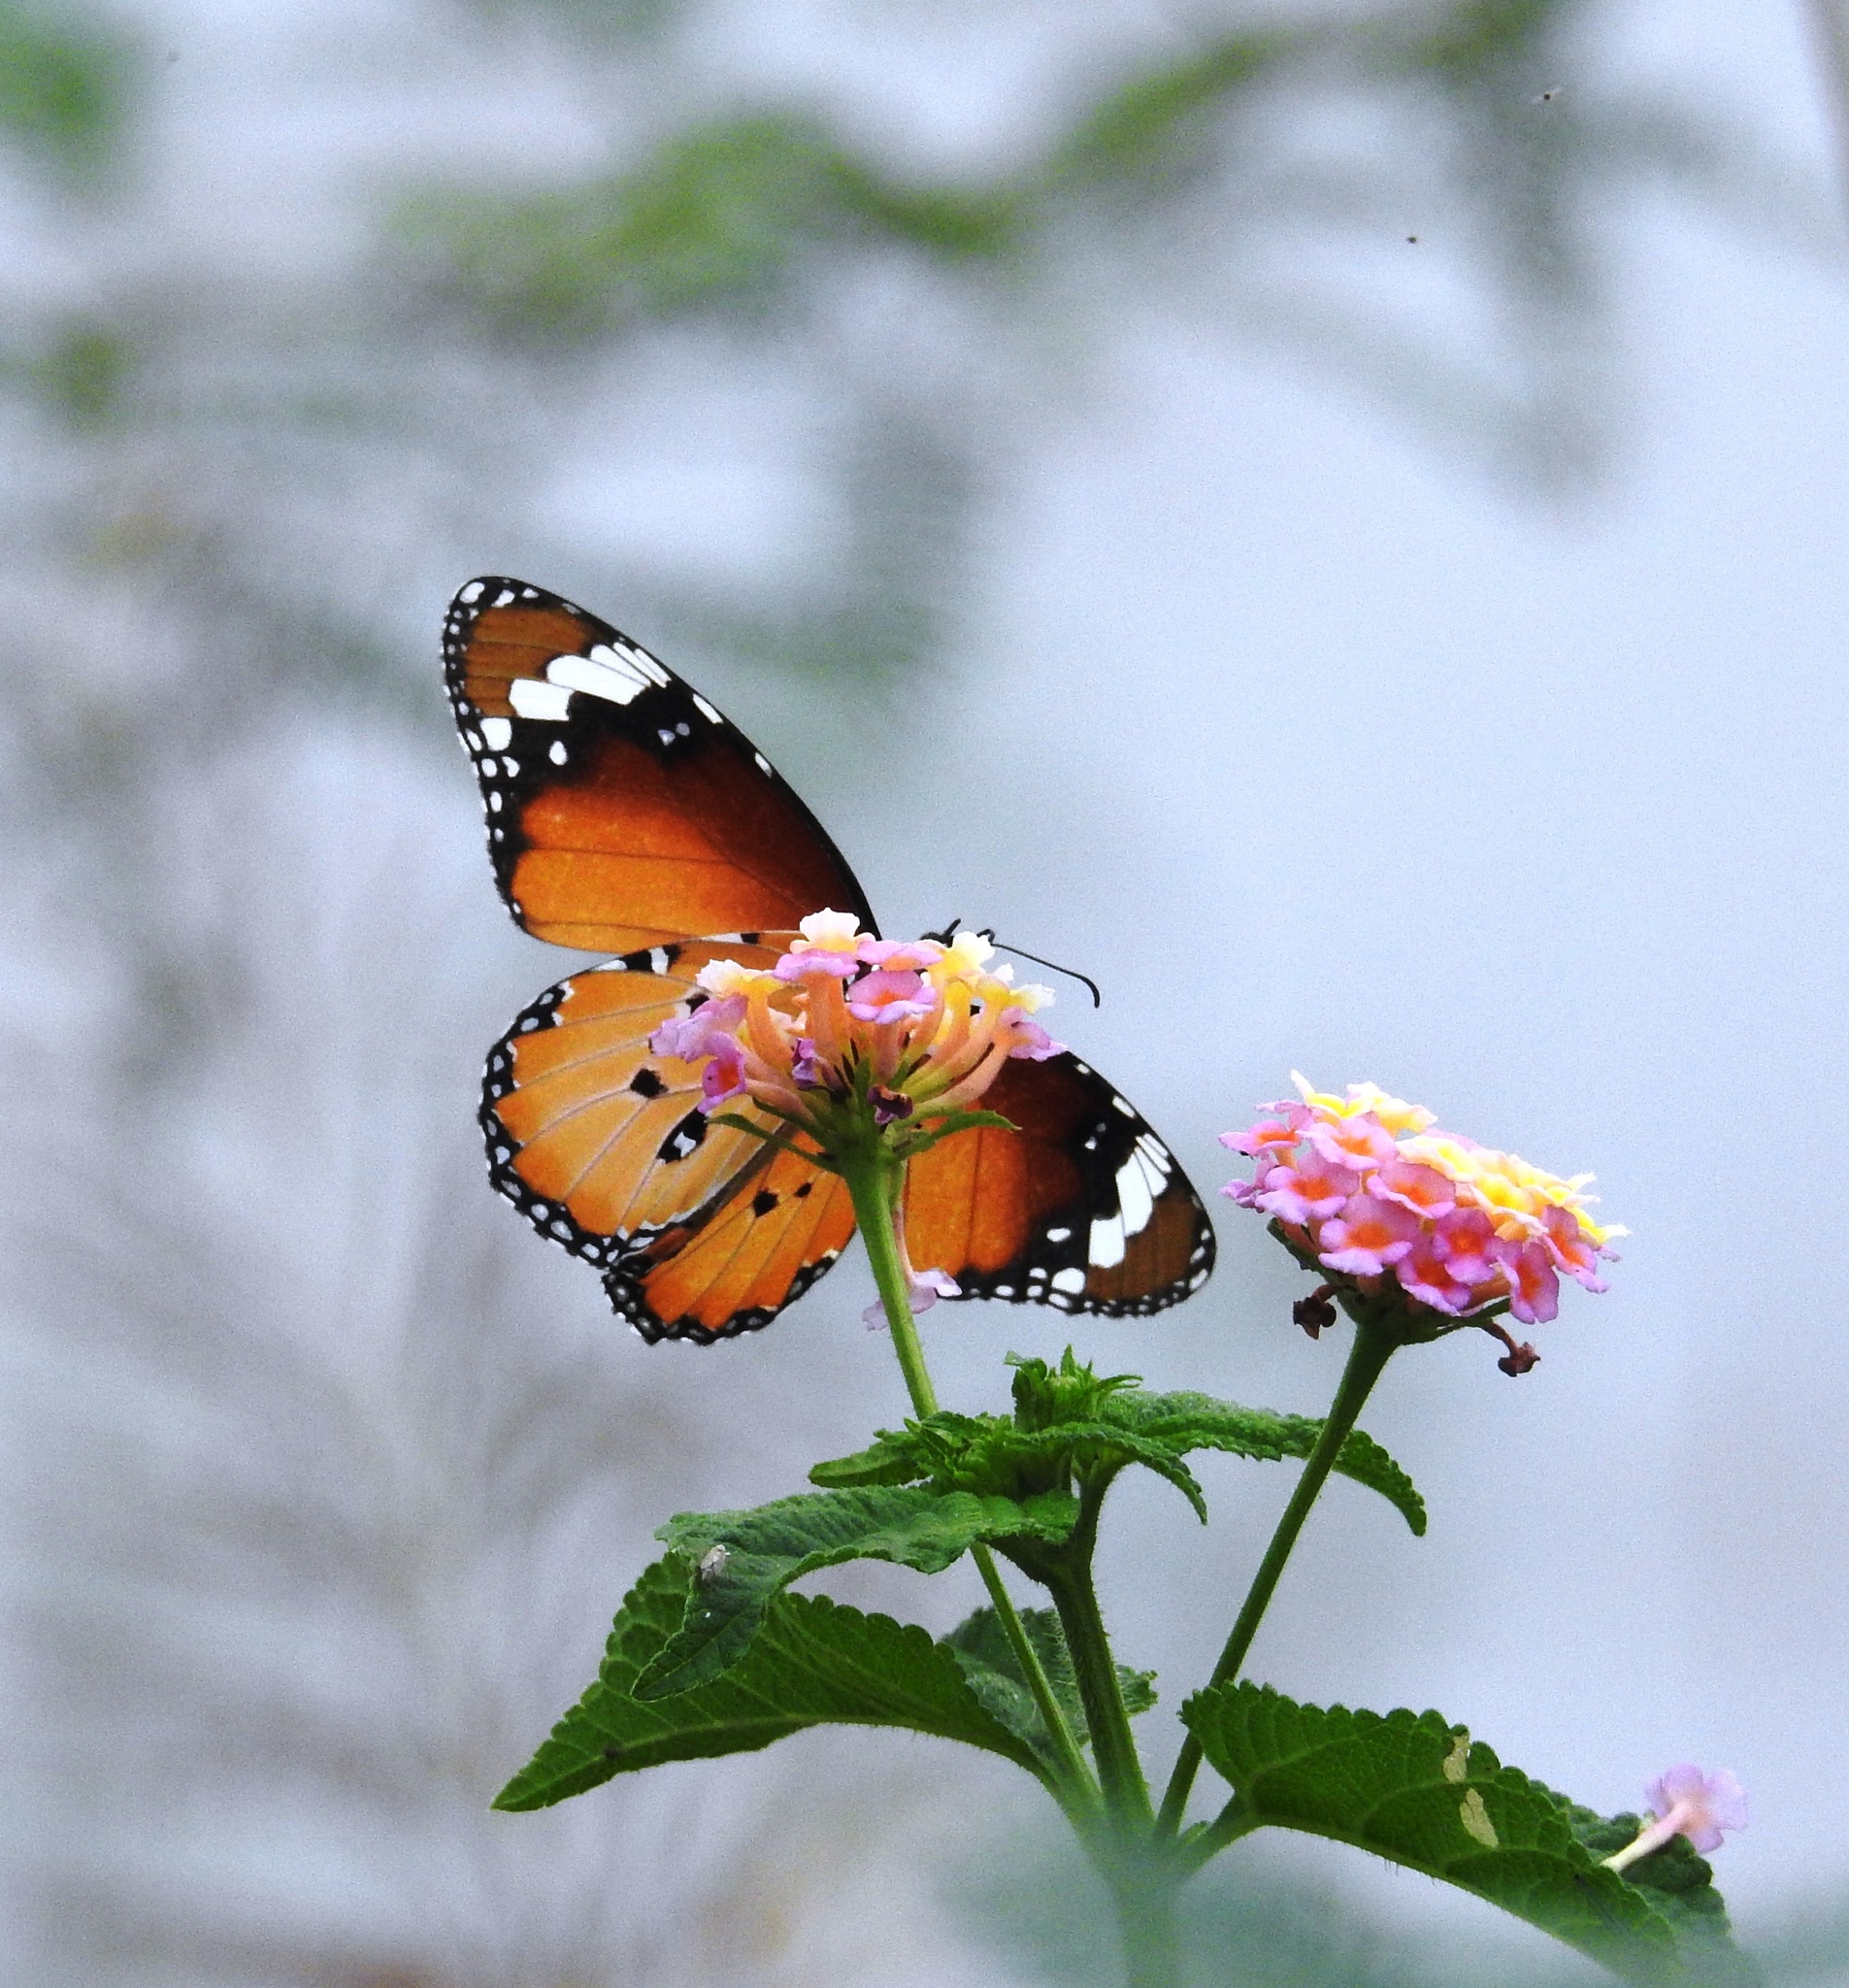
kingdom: Animalia
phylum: Arthropoda
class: Insecta
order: Lepidoptera
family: Nymphalidae
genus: Danaus
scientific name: Danaus chrysippus
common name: Plain tiger
